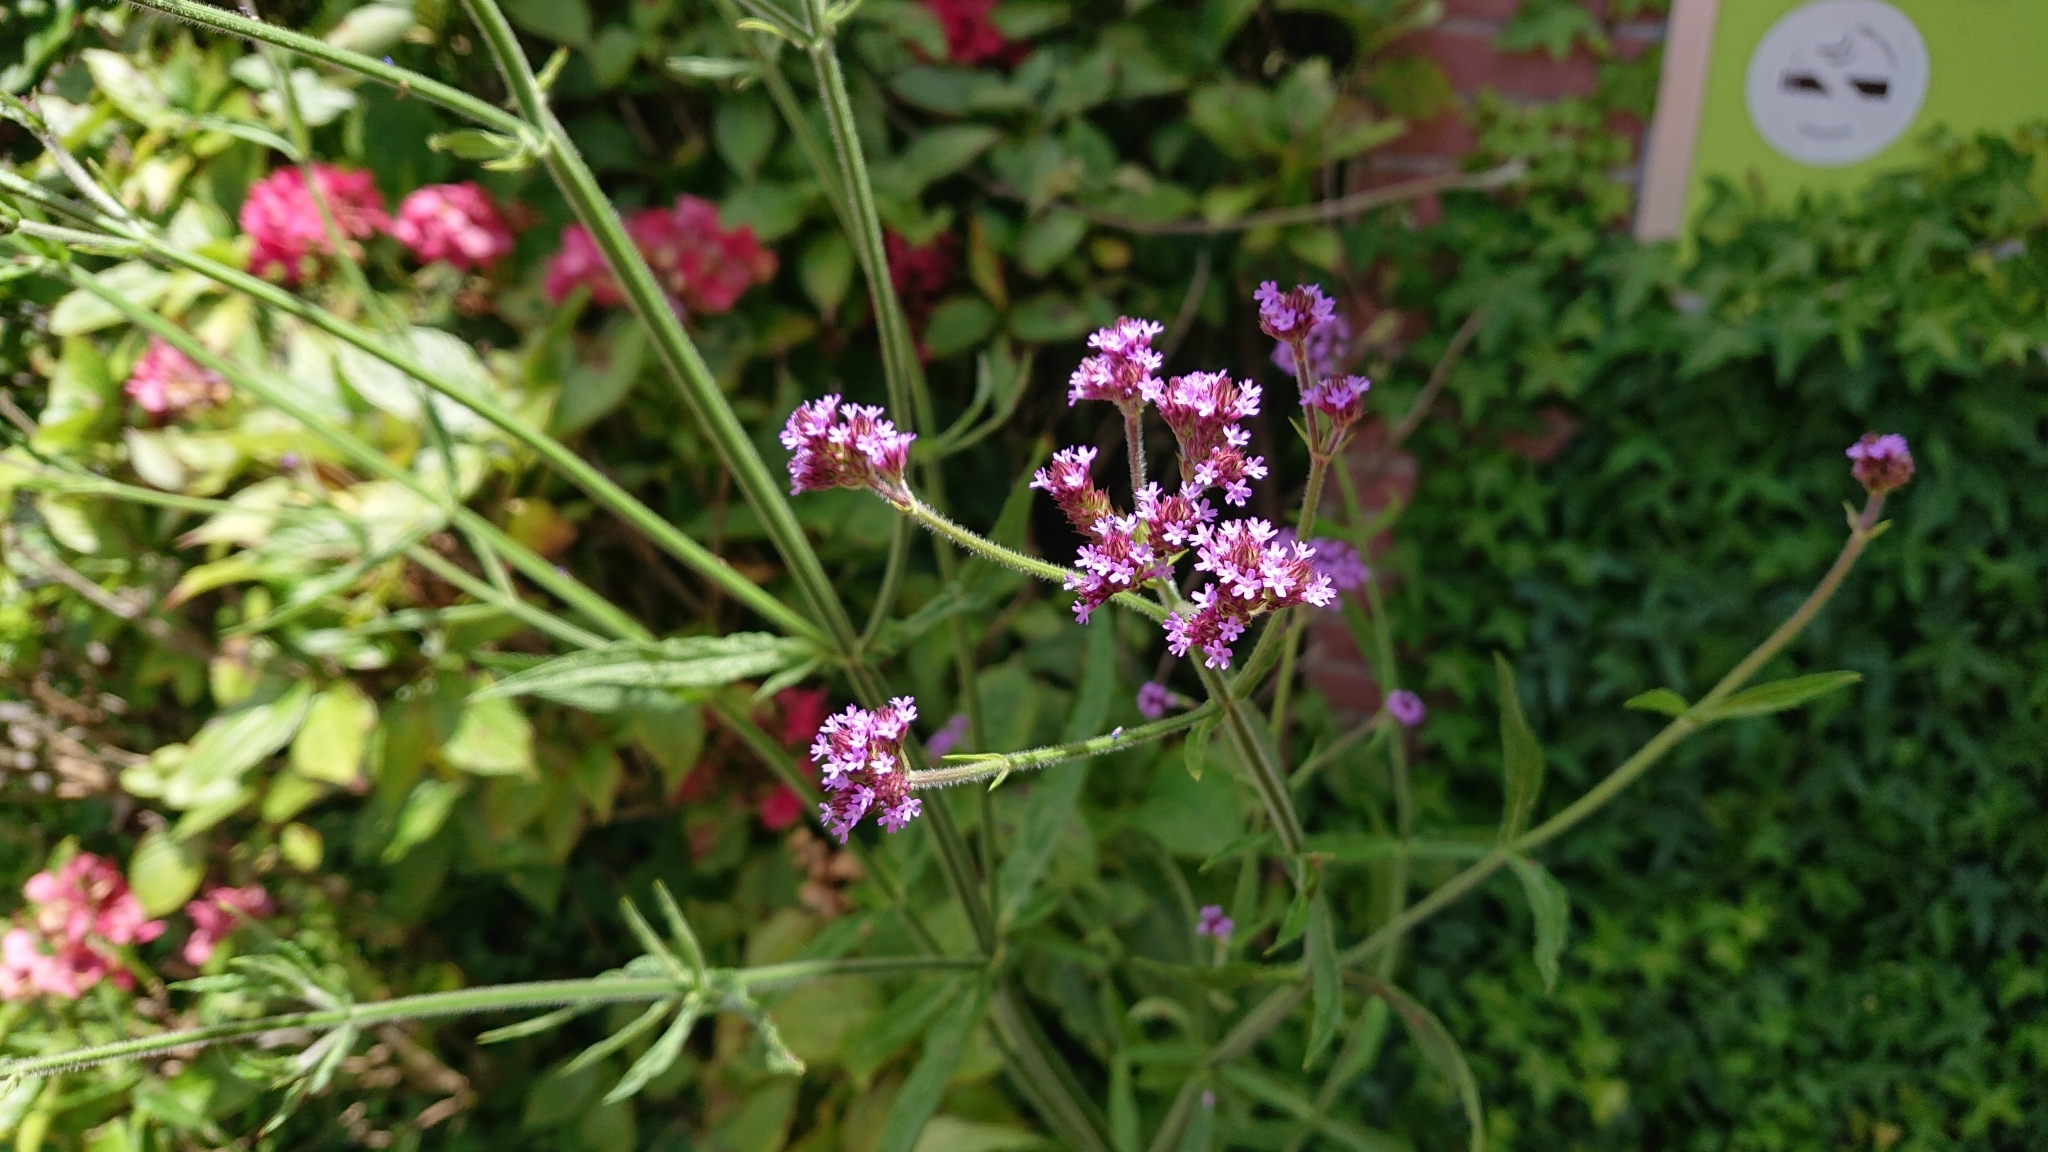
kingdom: Plantae
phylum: Tracheophyta
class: Magnoliopsida
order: Lamiales
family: Verbenaceae
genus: Verbena
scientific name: Verbena incompta
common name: Purpletop vervain
